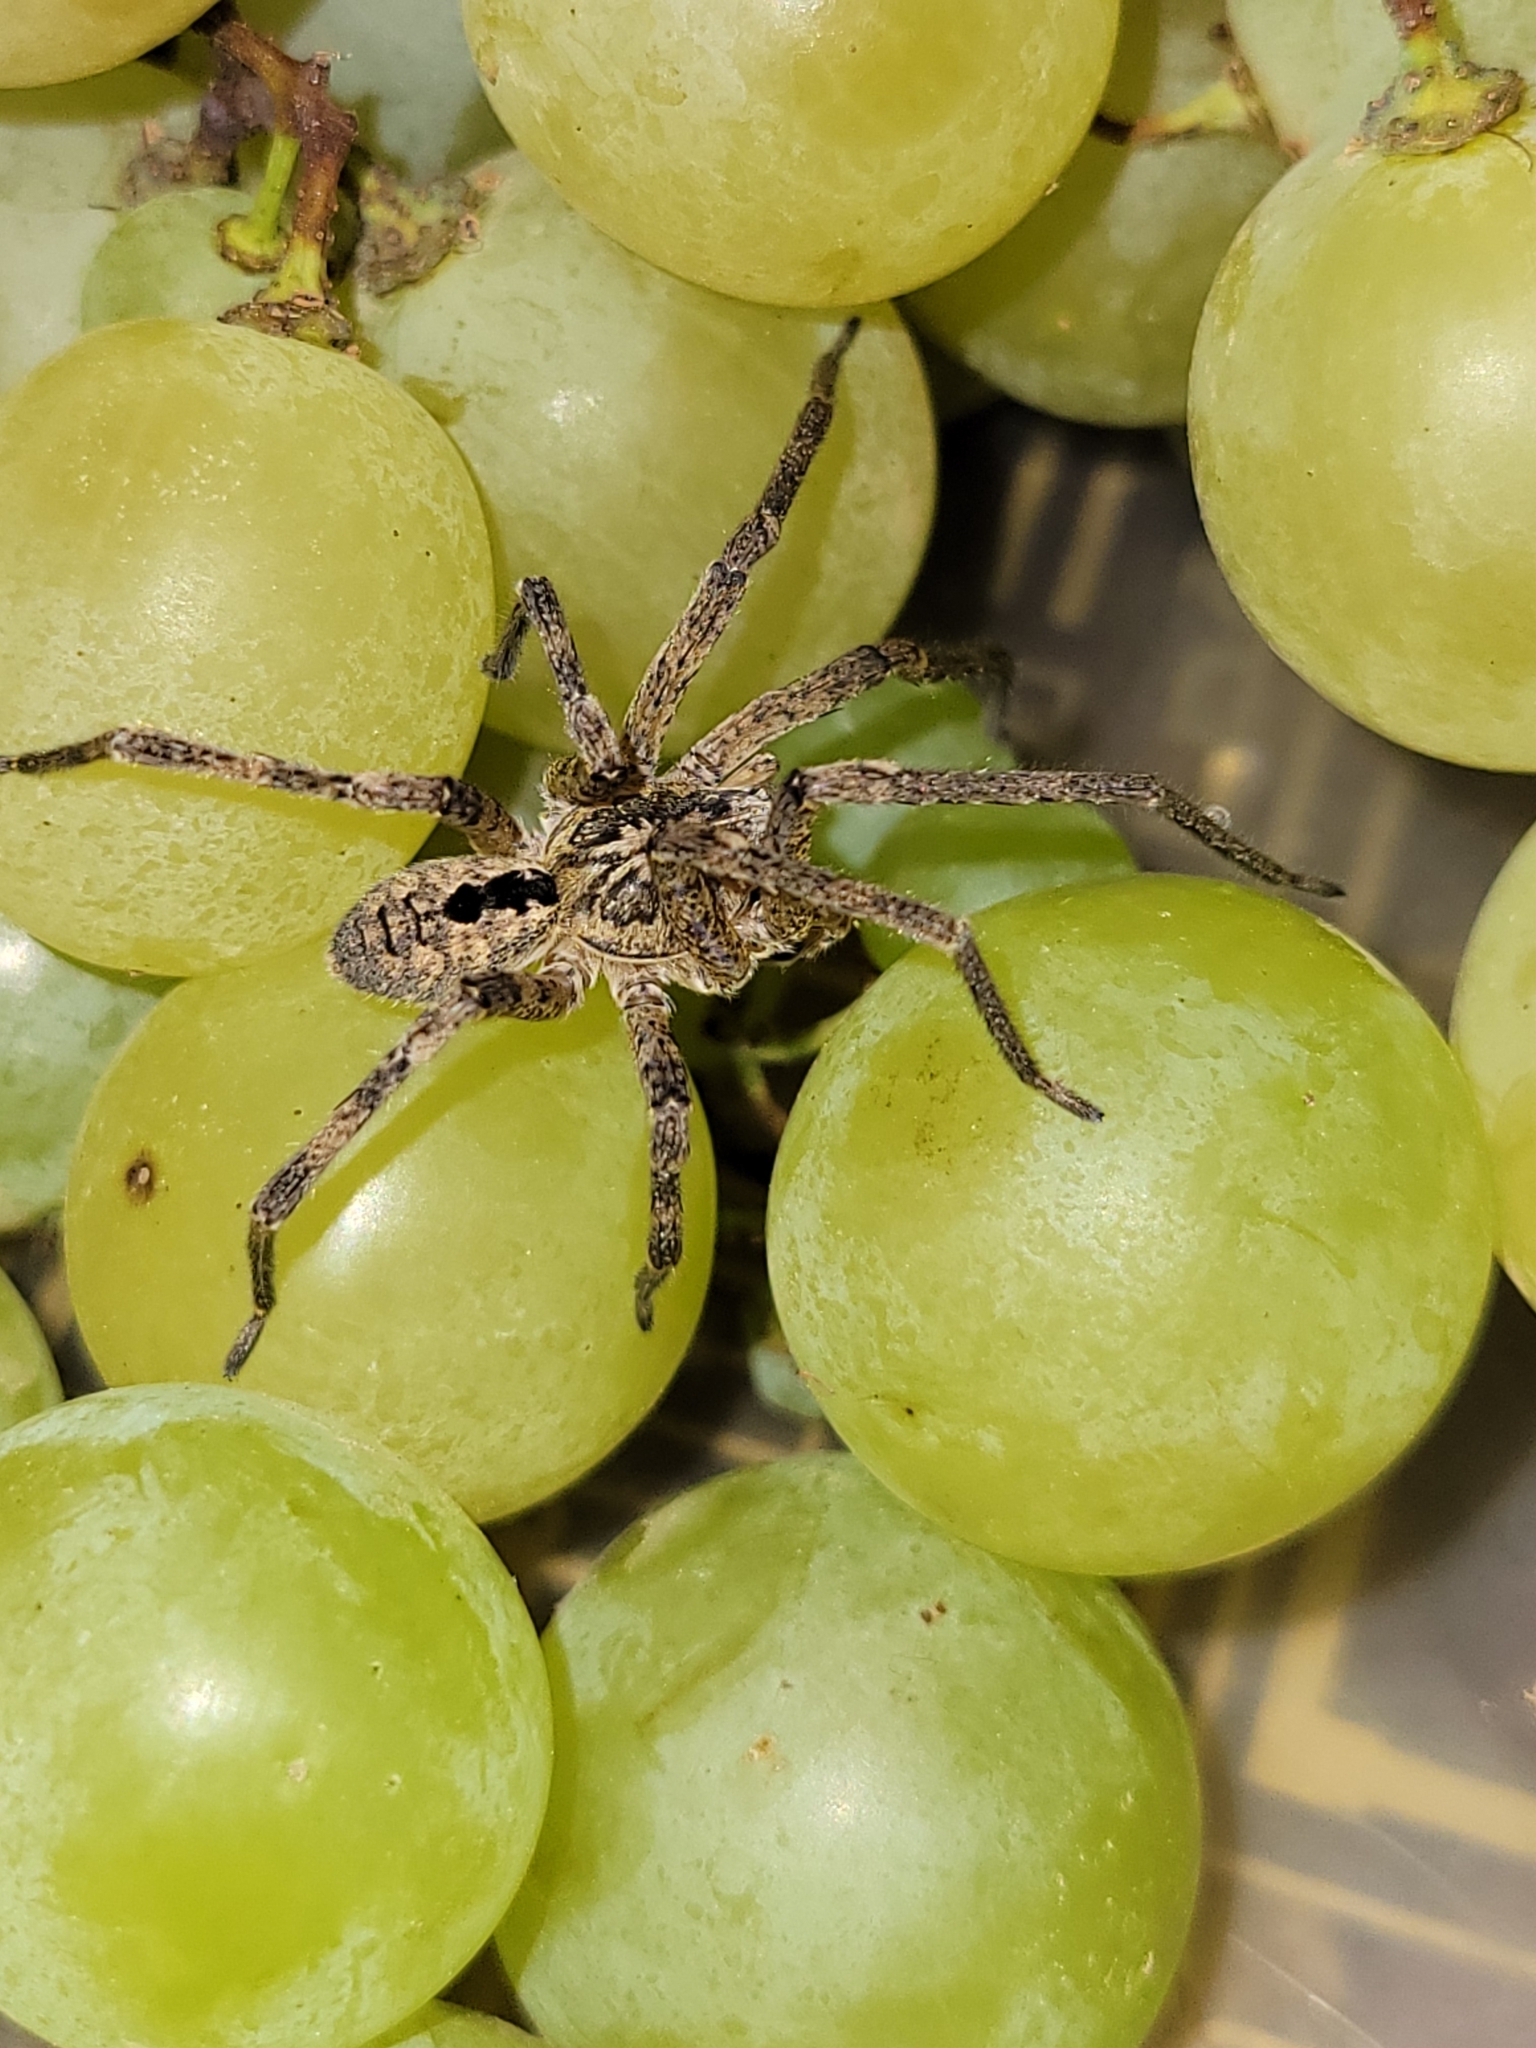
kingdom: Animalia
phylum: Arthropoda
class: Arachnida
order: Araneae
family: Zoropsidae
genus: Zoropsis
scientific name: Zoropsis spinimana
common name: Zoropsid spider
